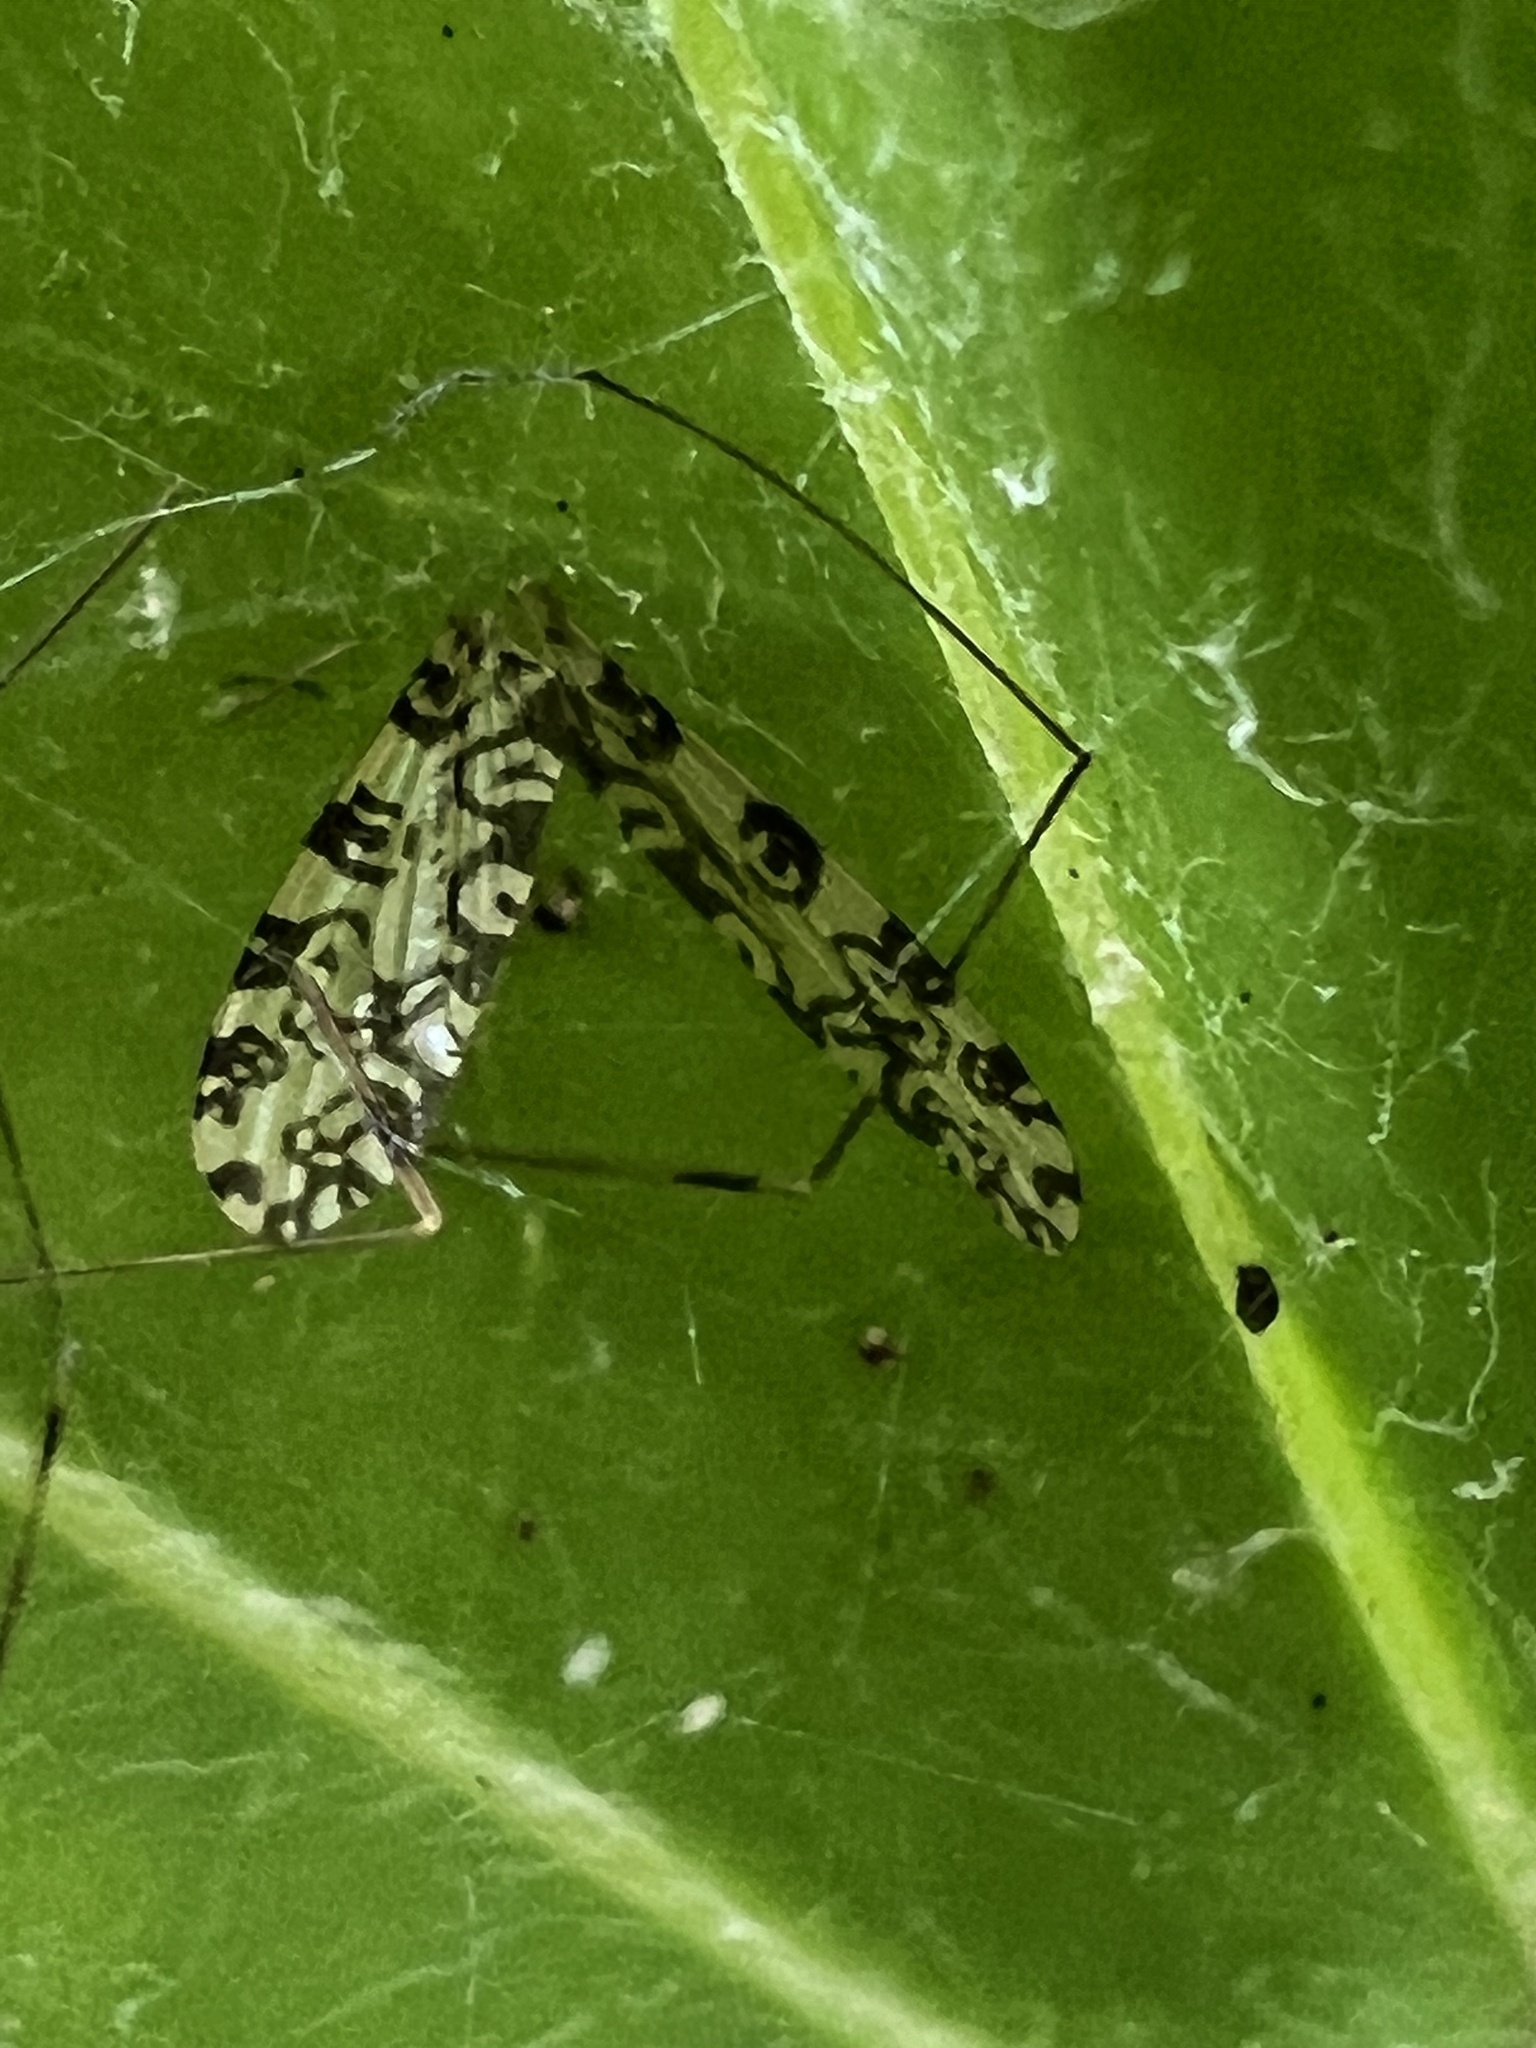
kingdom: Animalia
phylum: Arthropoda
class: Insecta
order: Diptera
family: Limoniidae
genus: Limonia
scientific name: Limonia annulata
